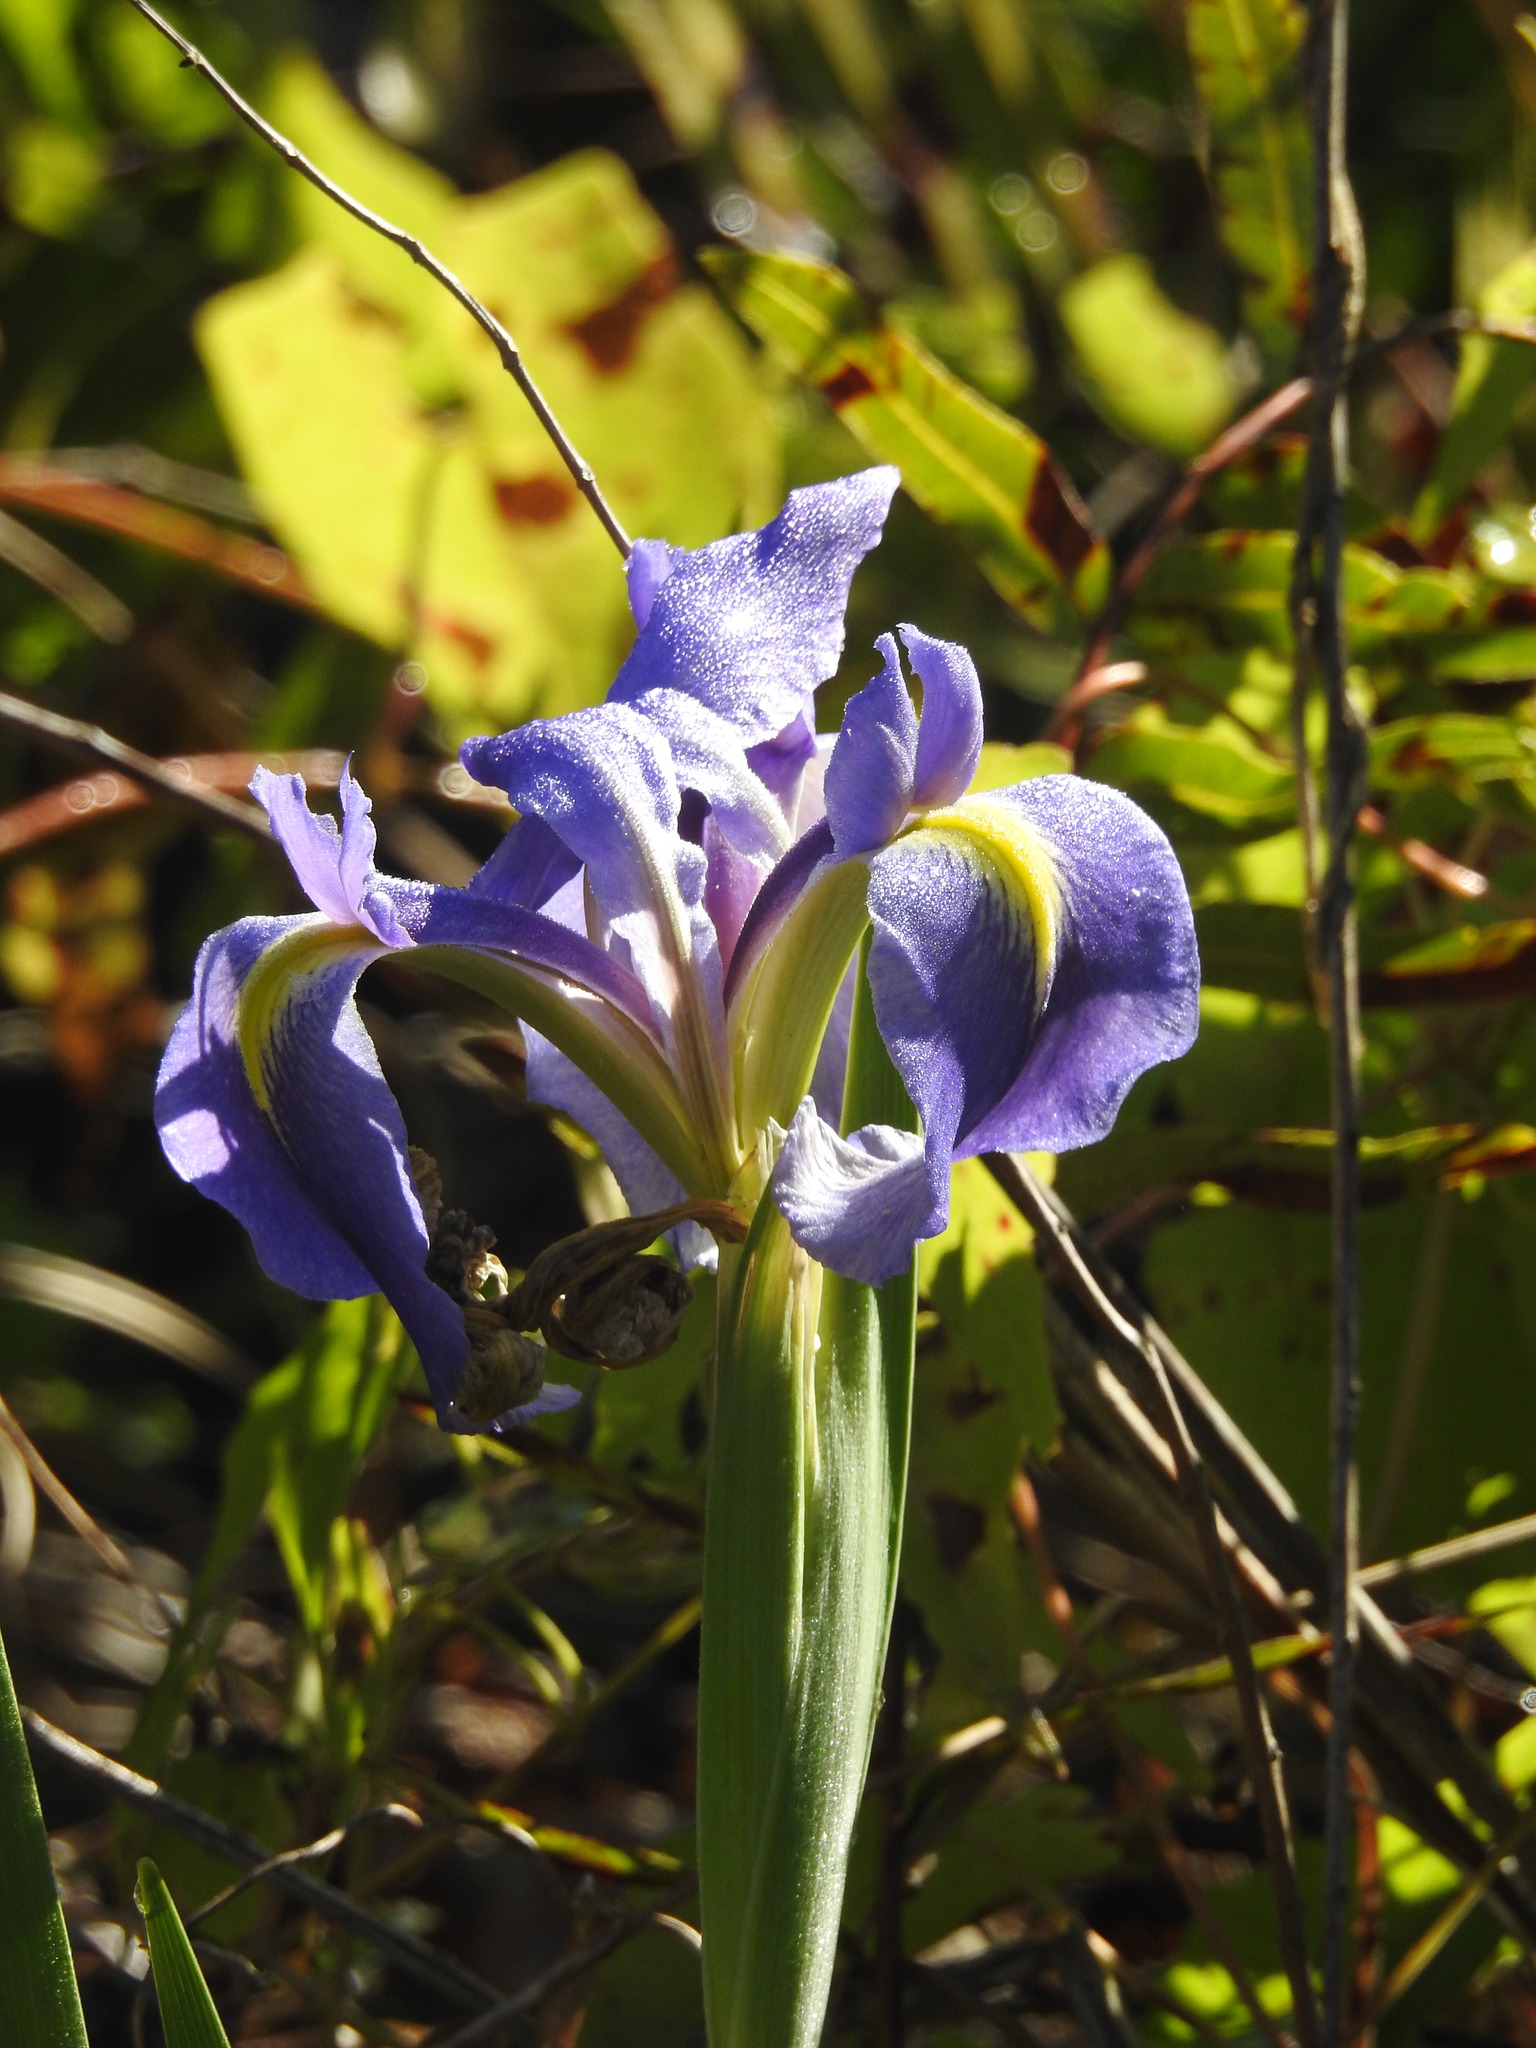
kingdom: Plantae
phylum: Tracheophyta
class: Liliopsida
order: Asparagales
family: Iridaceae
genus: Iris
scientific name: Iris savannarum
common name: Prairie iris
